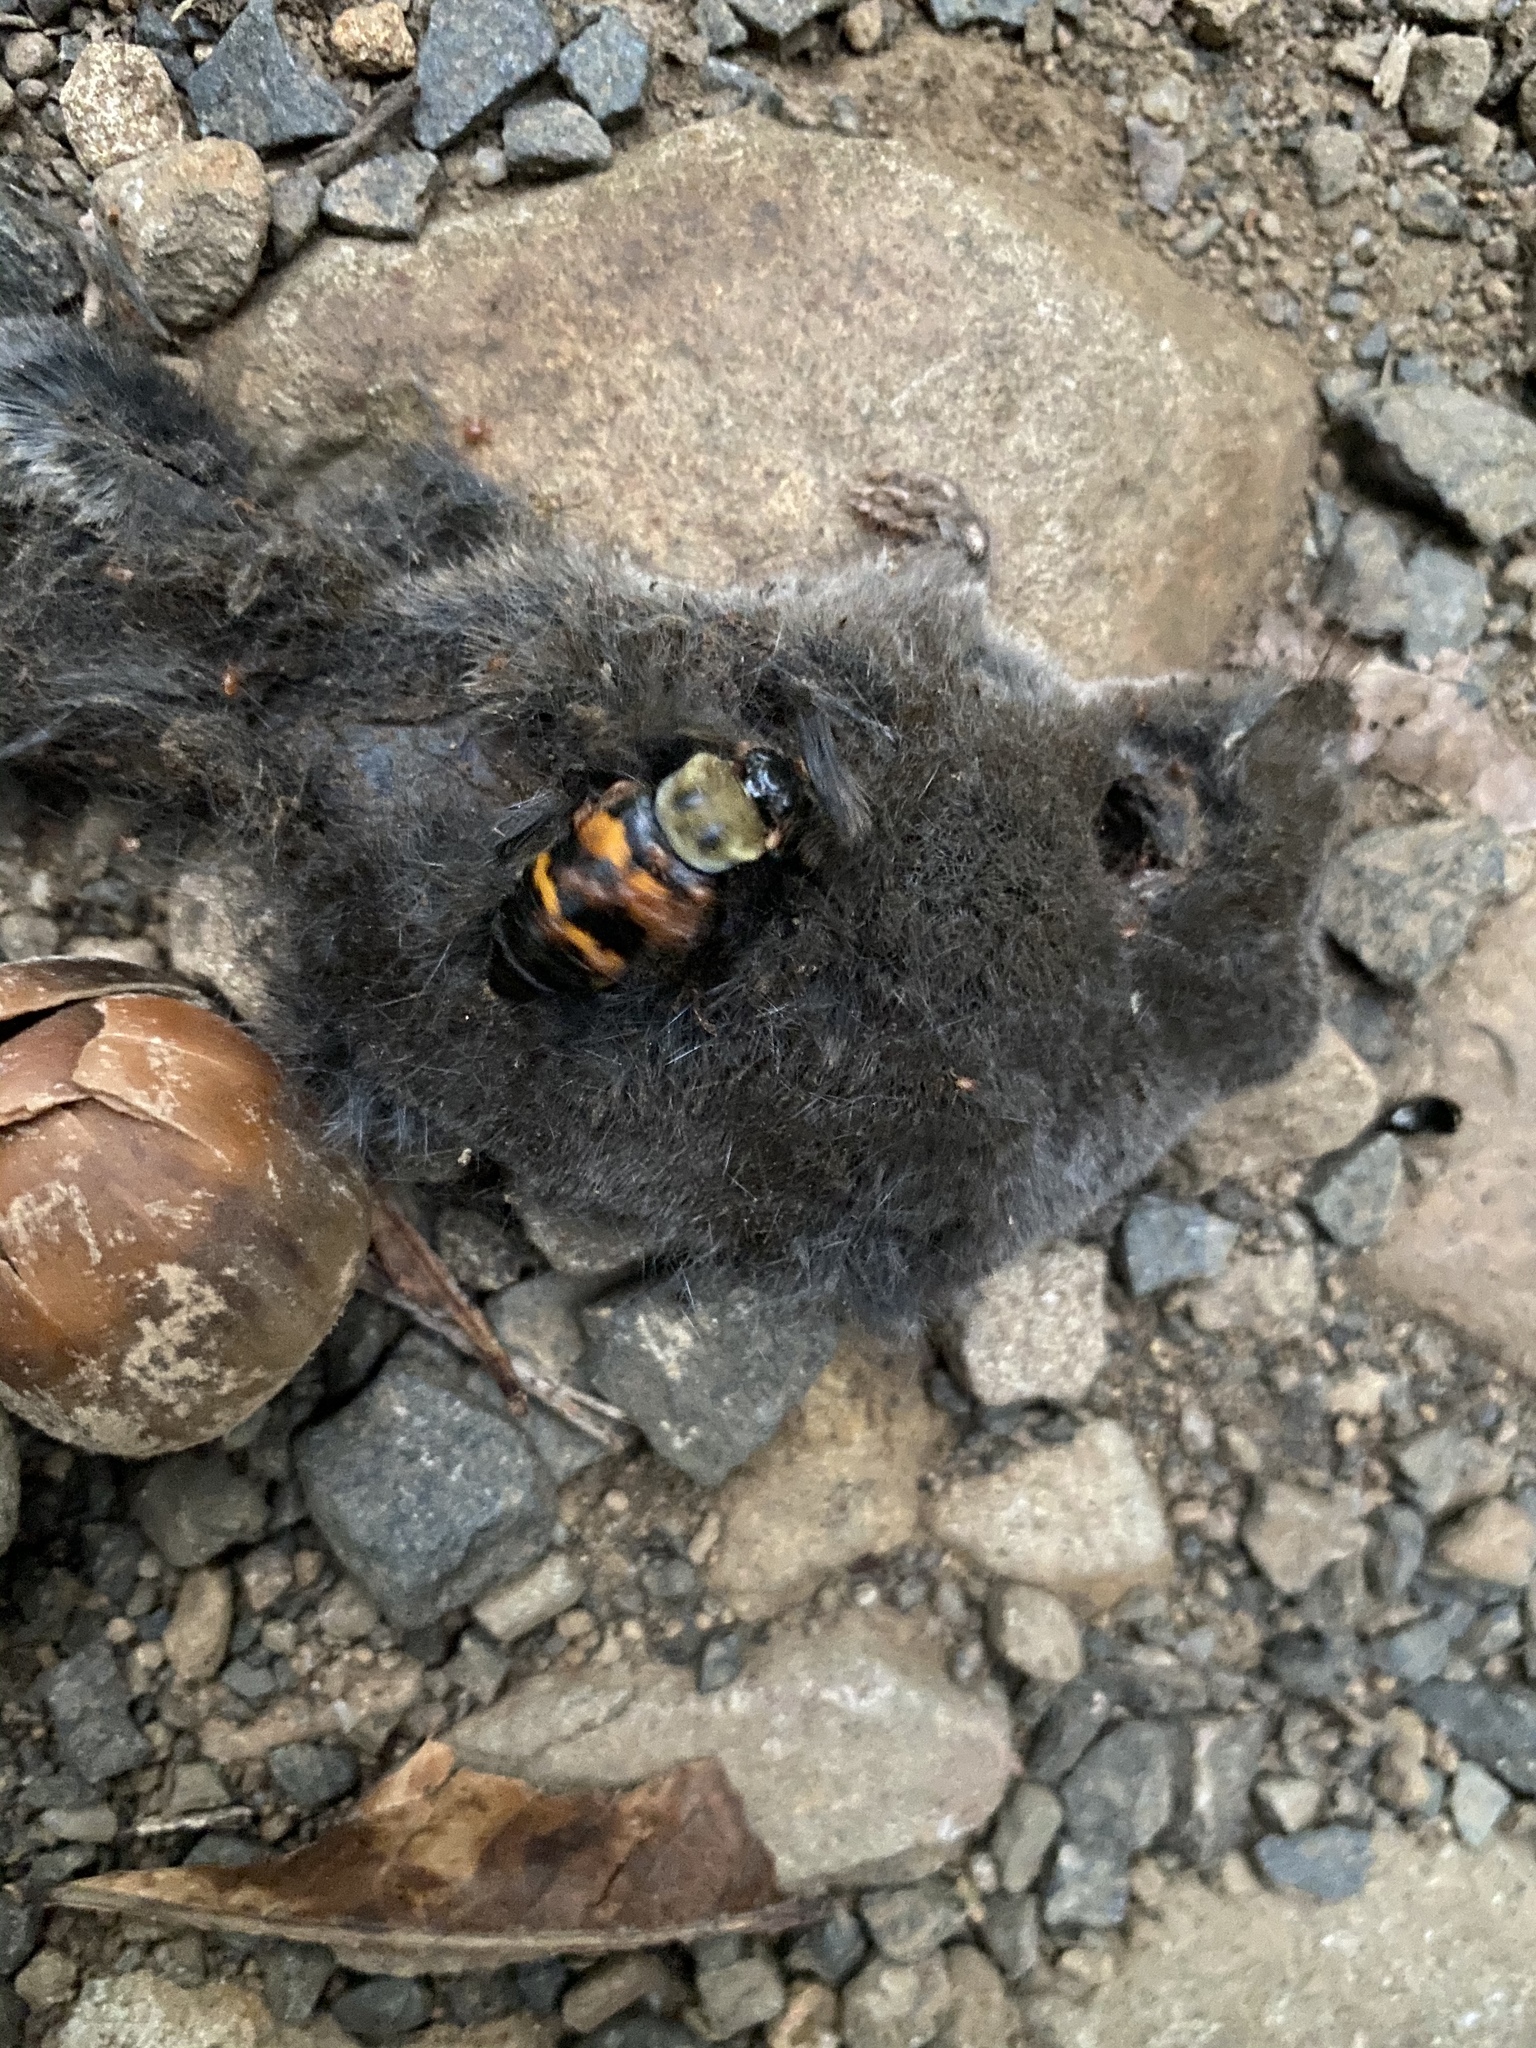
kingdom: Animalia
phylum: Arthropoda
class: Insecta
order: Coleoptera
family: Staphylinidae
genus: Nicrophorus
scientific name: Nicrophorus tomentosus
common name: Tomentose burying beetle
